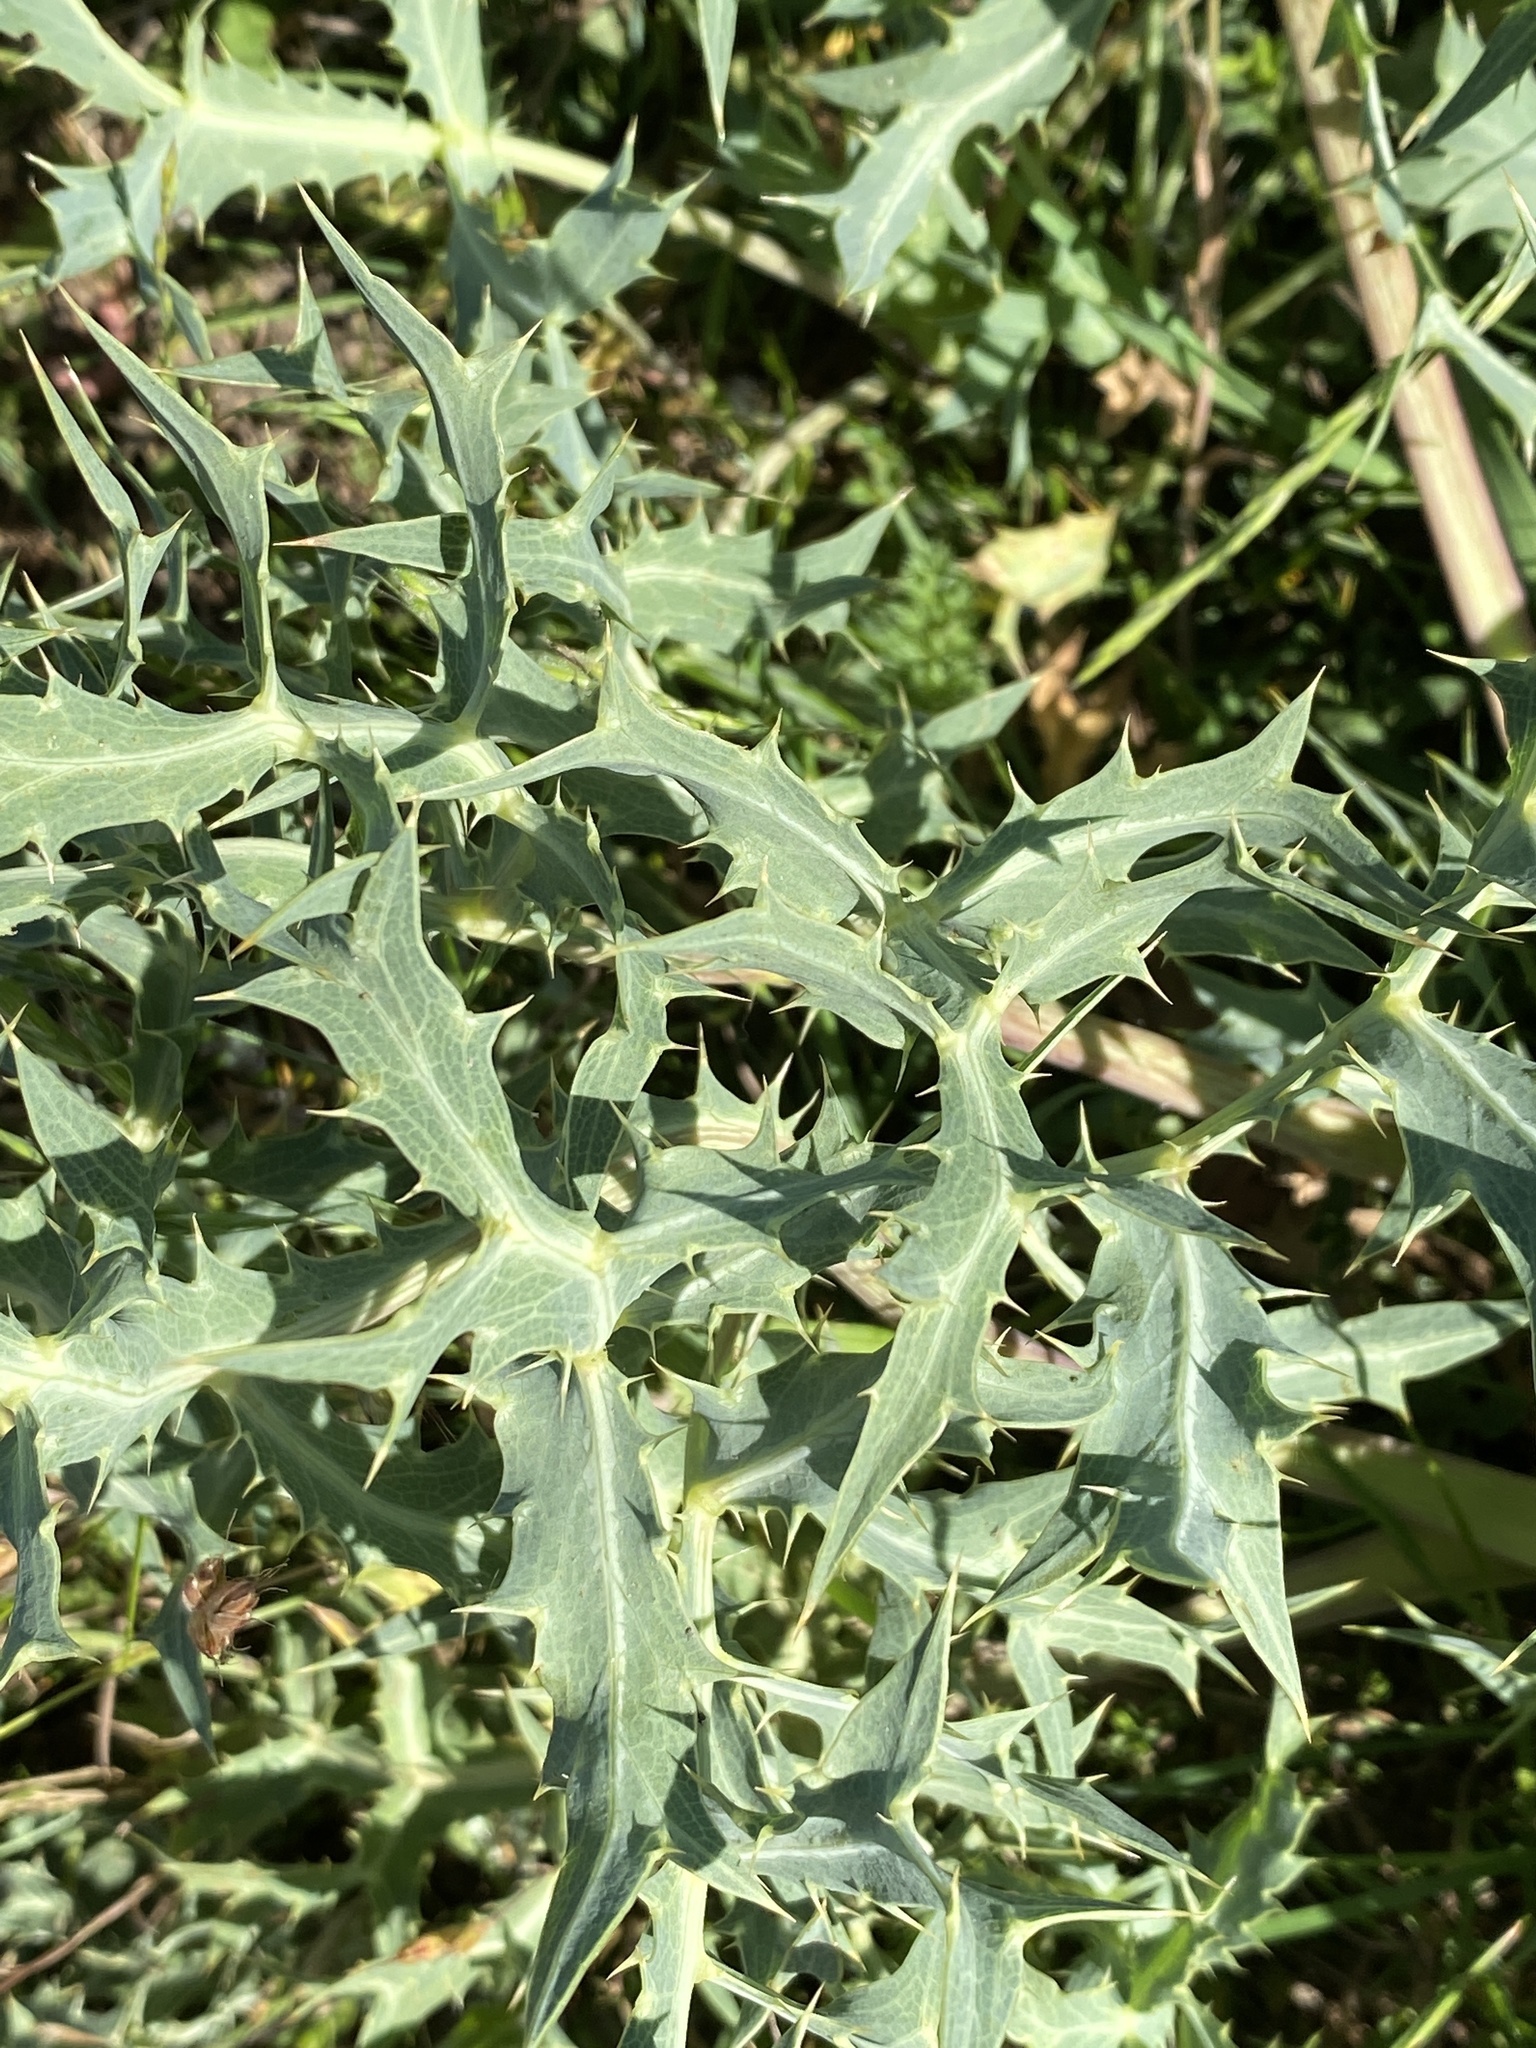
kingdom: Plantae
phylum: Tracheophyta
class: Magnoliopsida
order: Apiales
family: Apiaceae
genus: Eryngium
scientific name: Eryngium campestre
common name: Field eryngo
